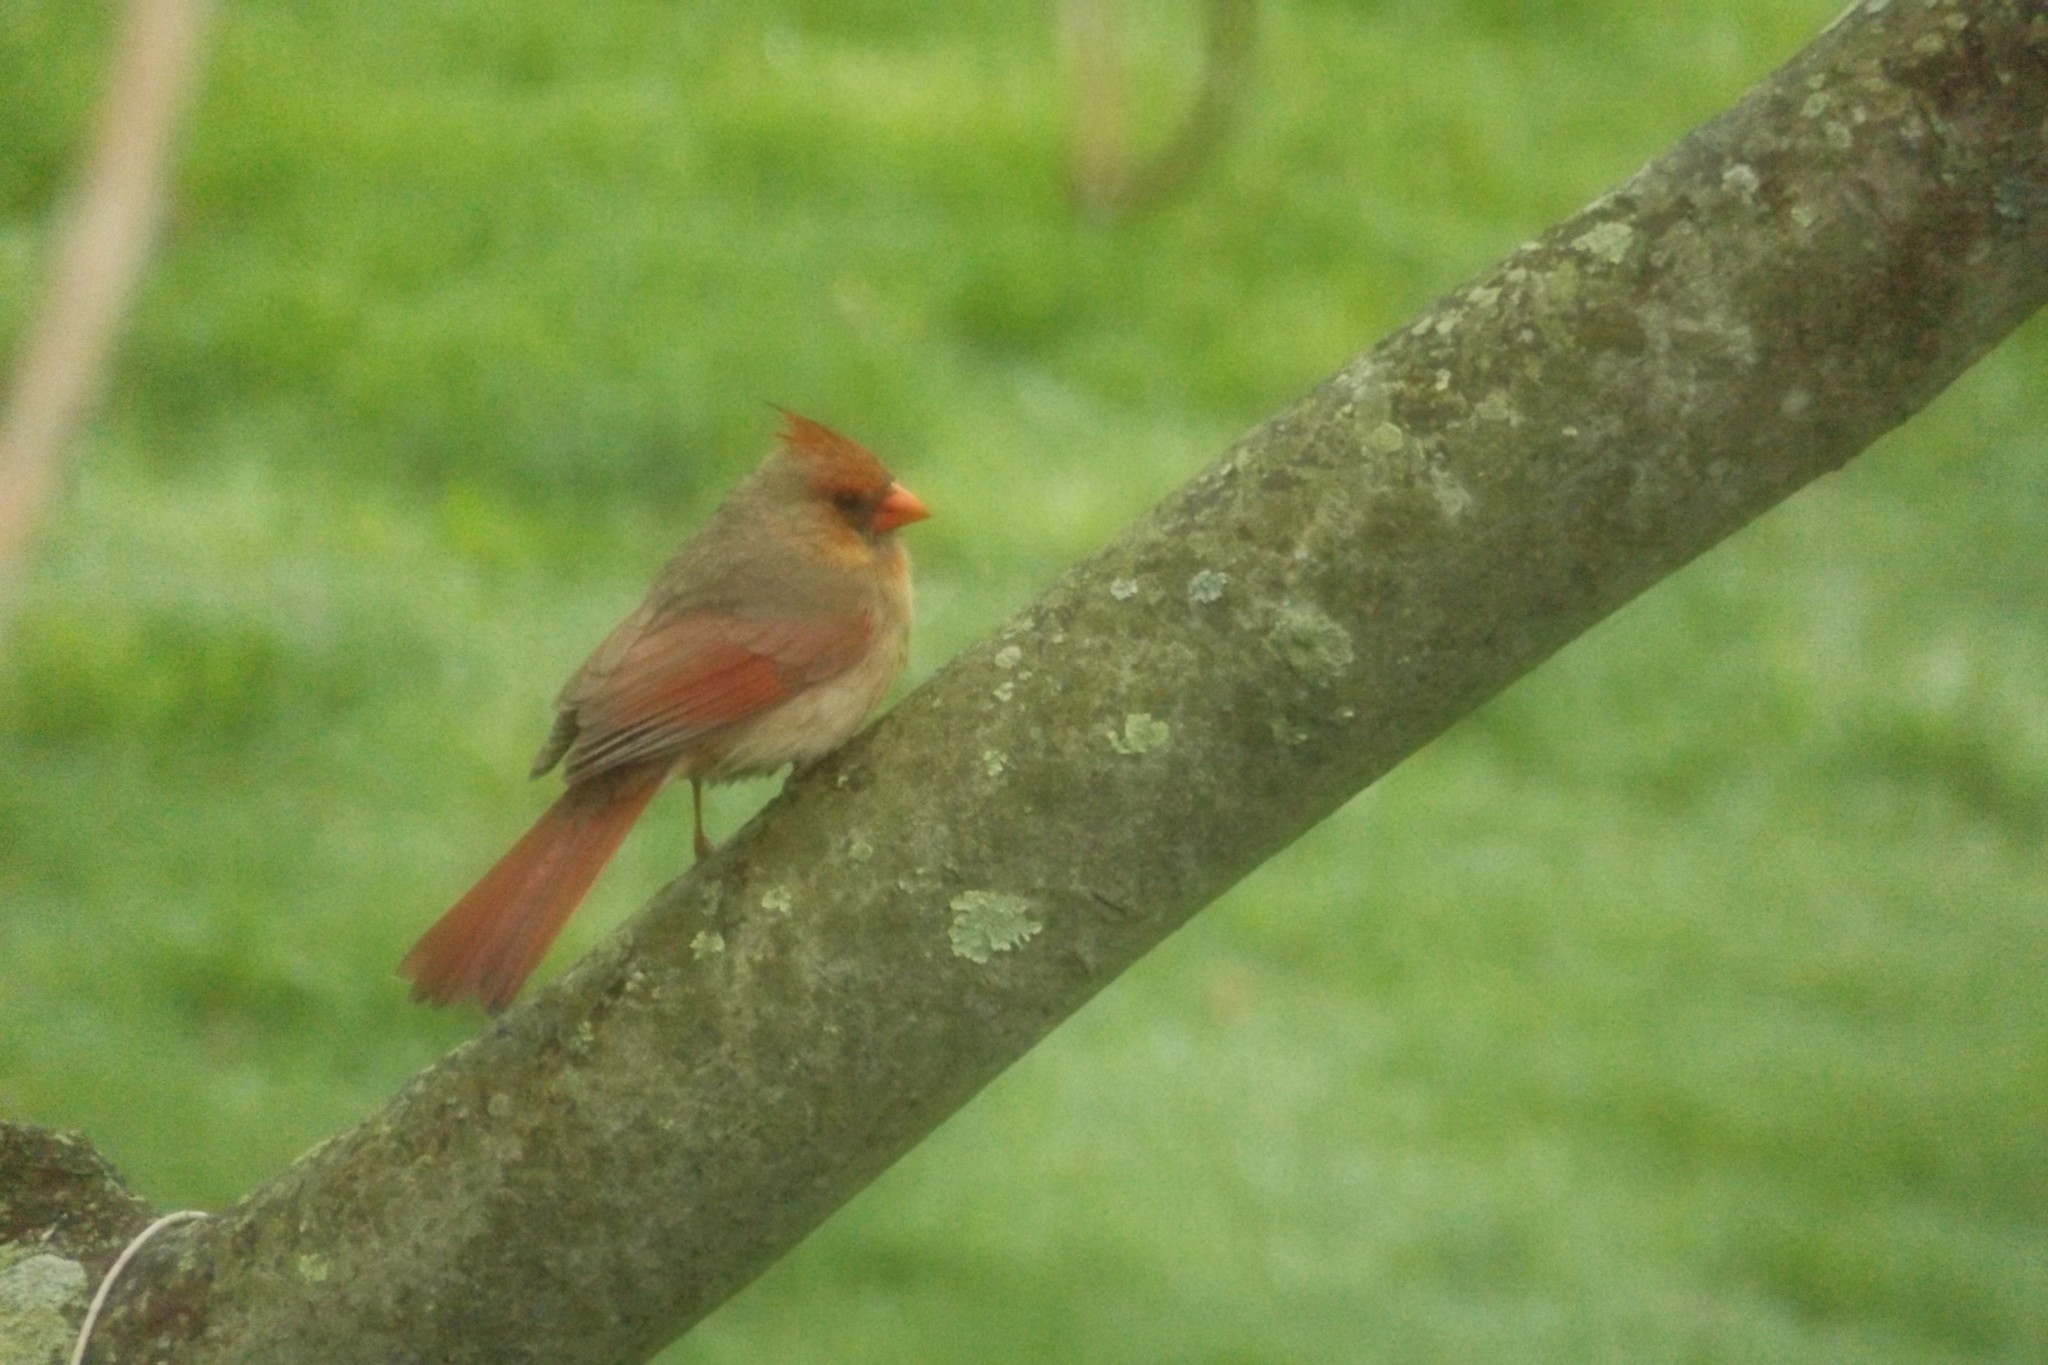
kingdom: Animalia
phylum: Chordata
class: Aves
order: Passeriformes
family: Cardinalidae
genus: Cardinalis
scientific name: Cardinalis cardinalis
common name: Northern cardinal
